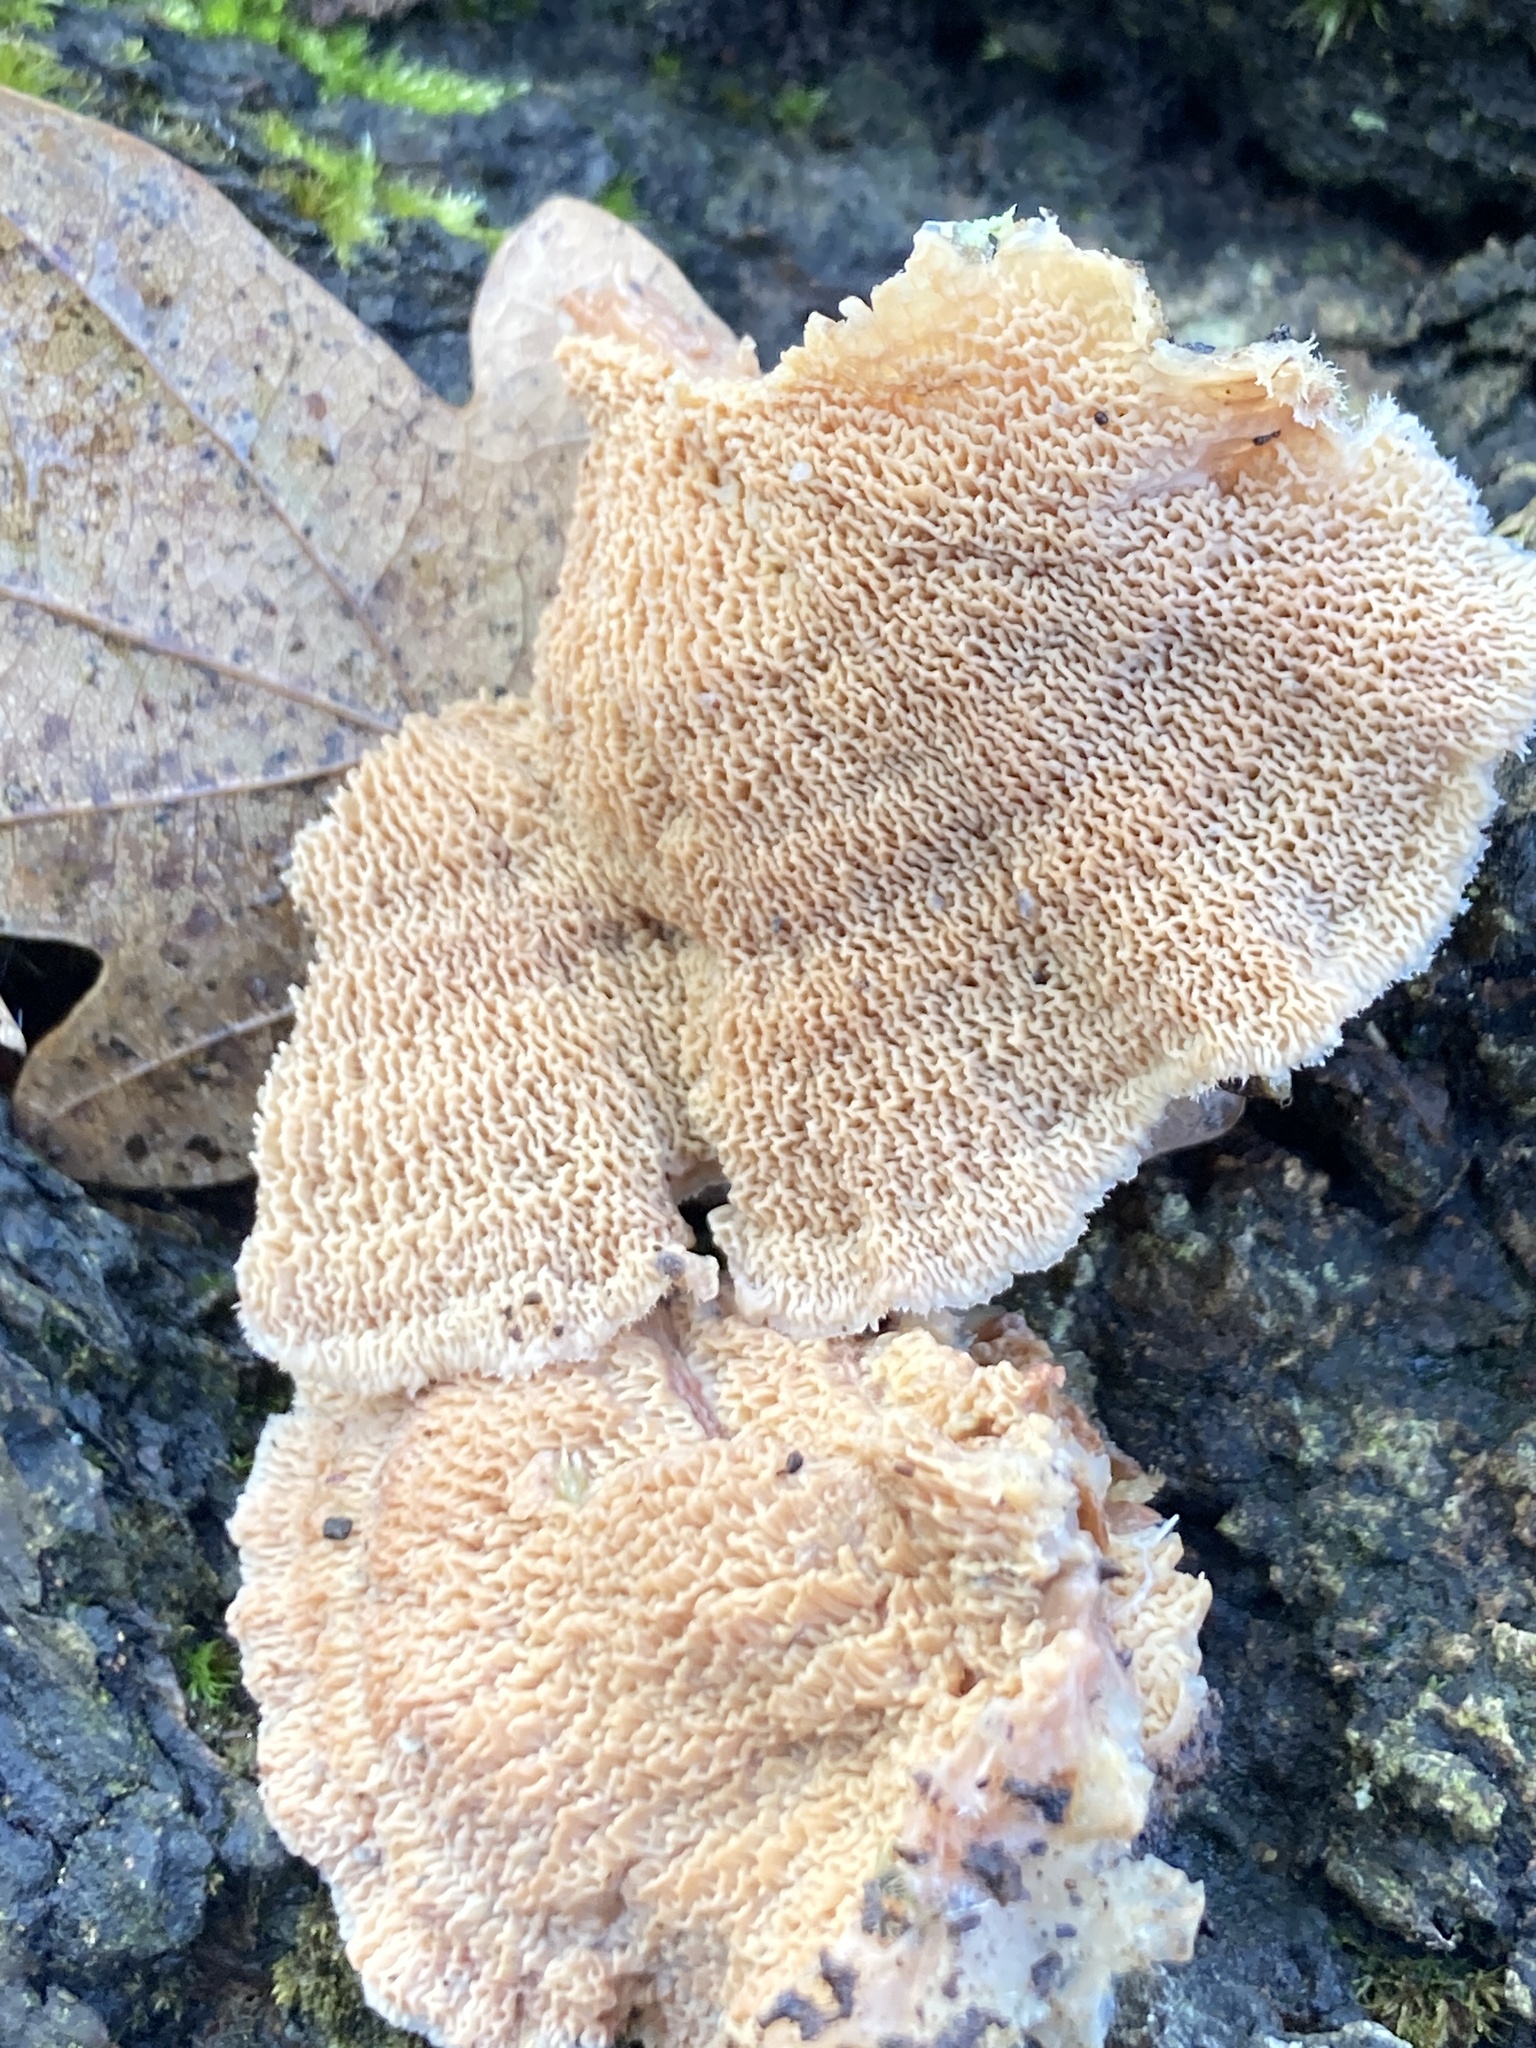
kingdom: Fungi
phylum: Basidiomycota
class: Agaricomycetes
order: Polyporales
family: Meruliaceae
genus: Phlebia
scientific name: Phlebia tremellosa
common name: Jelly rot
